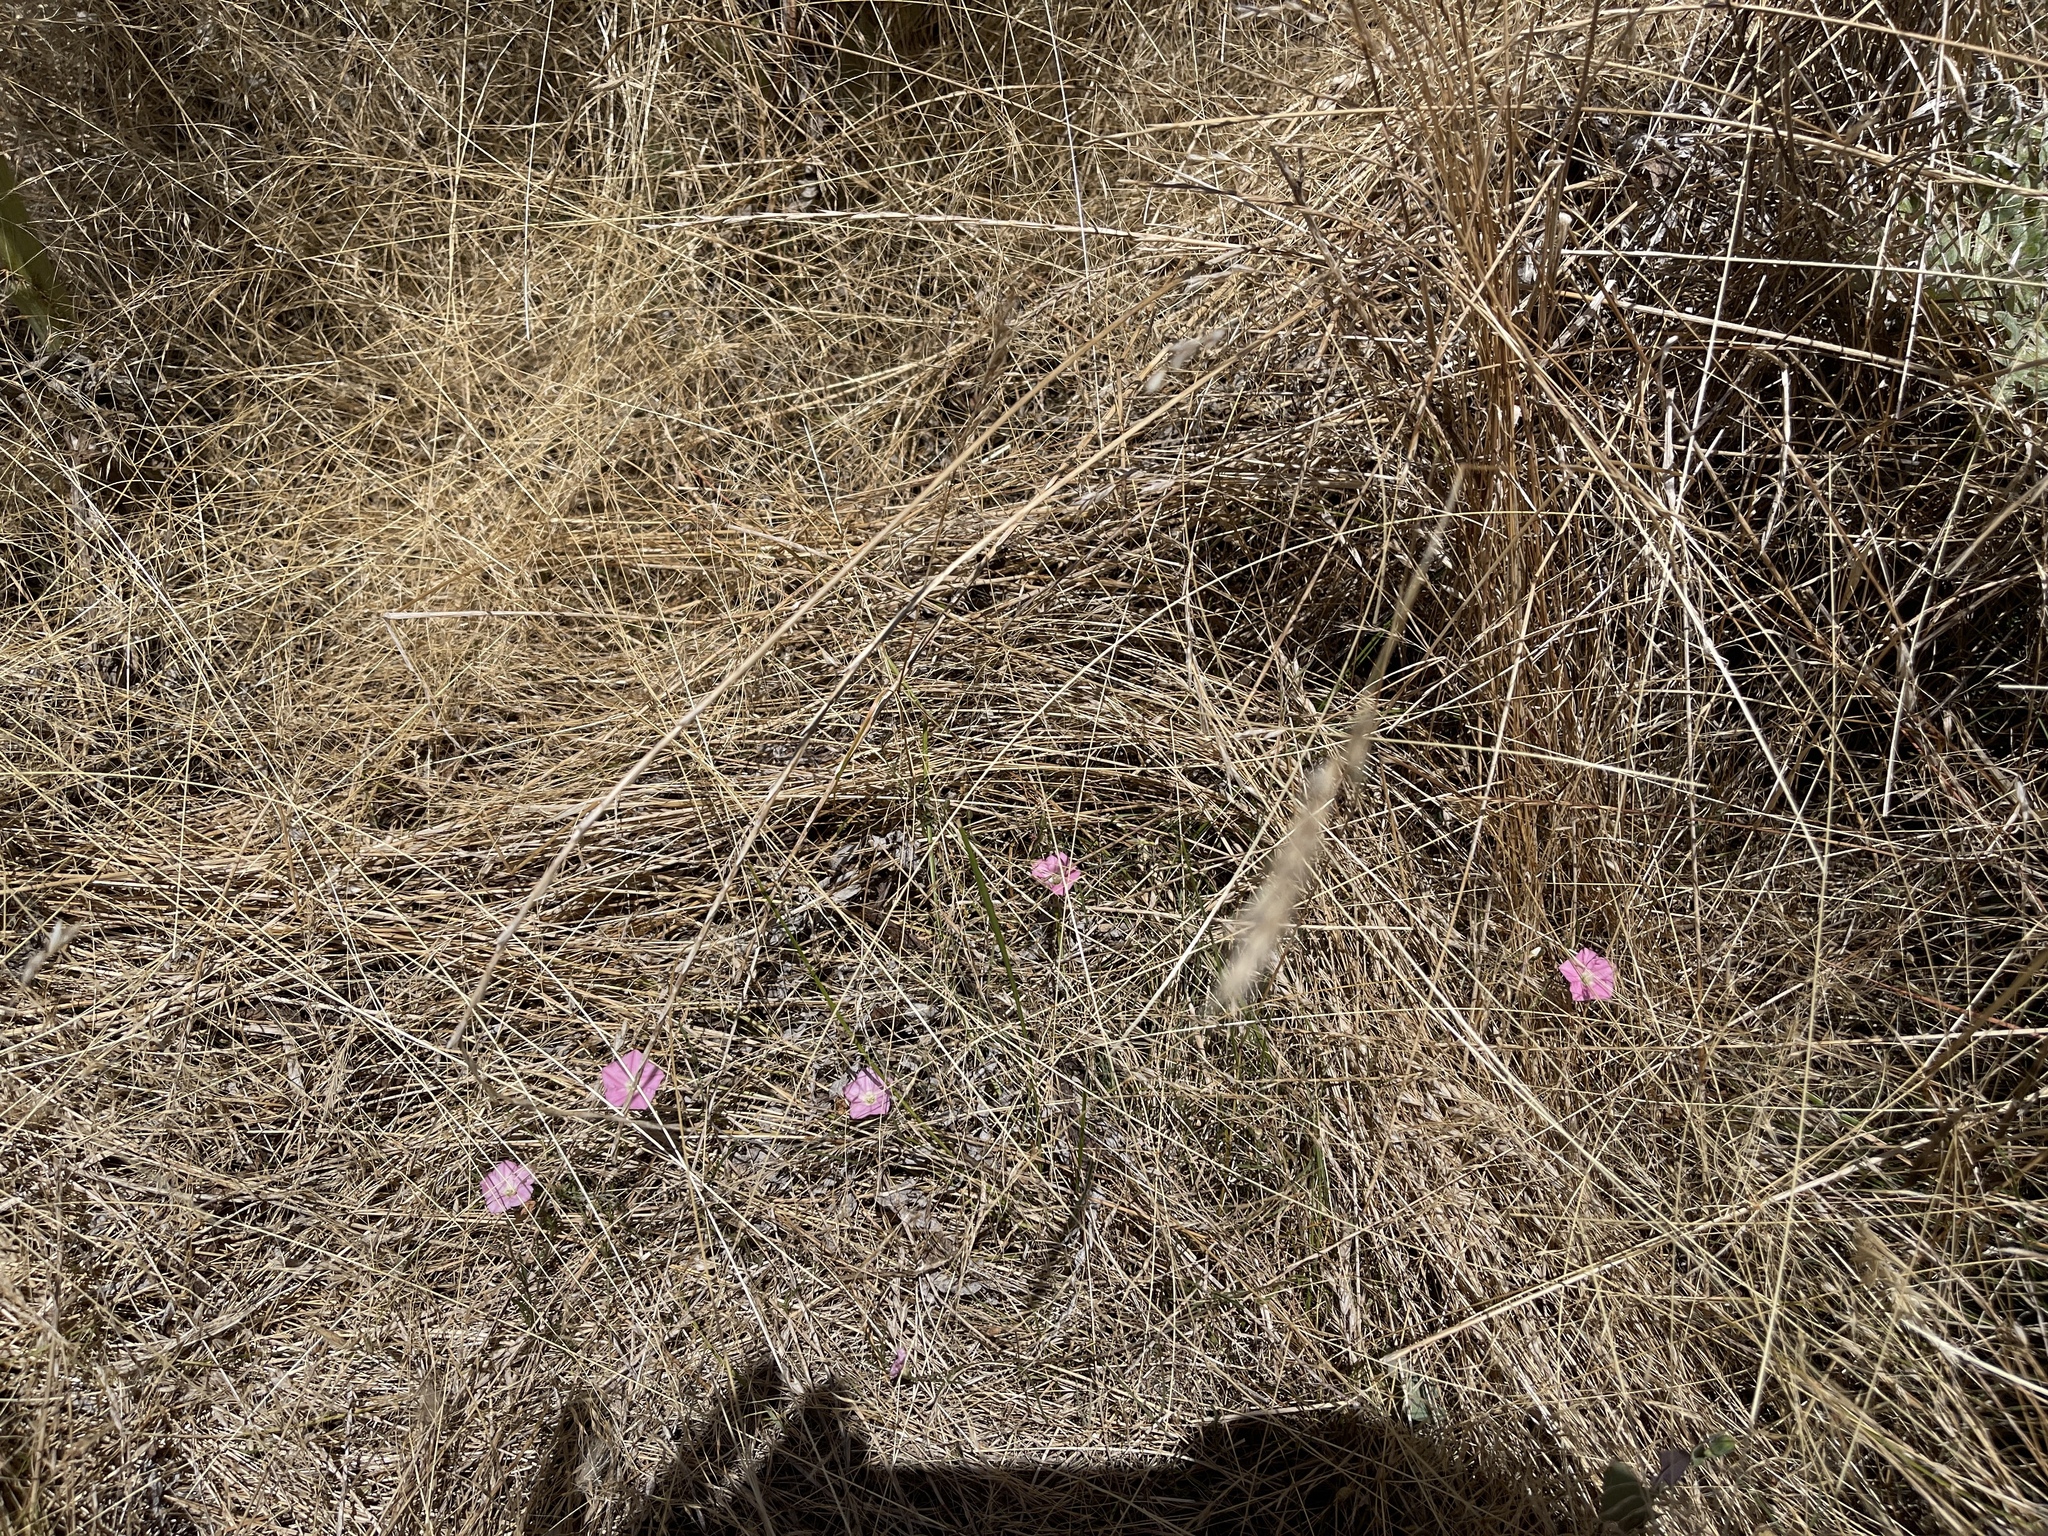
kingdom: Plantae
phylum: Tracheophyta
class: Magnoliopsida
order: Solanales
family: Convolvulaceae
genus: Convolvulus
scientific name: Convolvulus angustissimus
